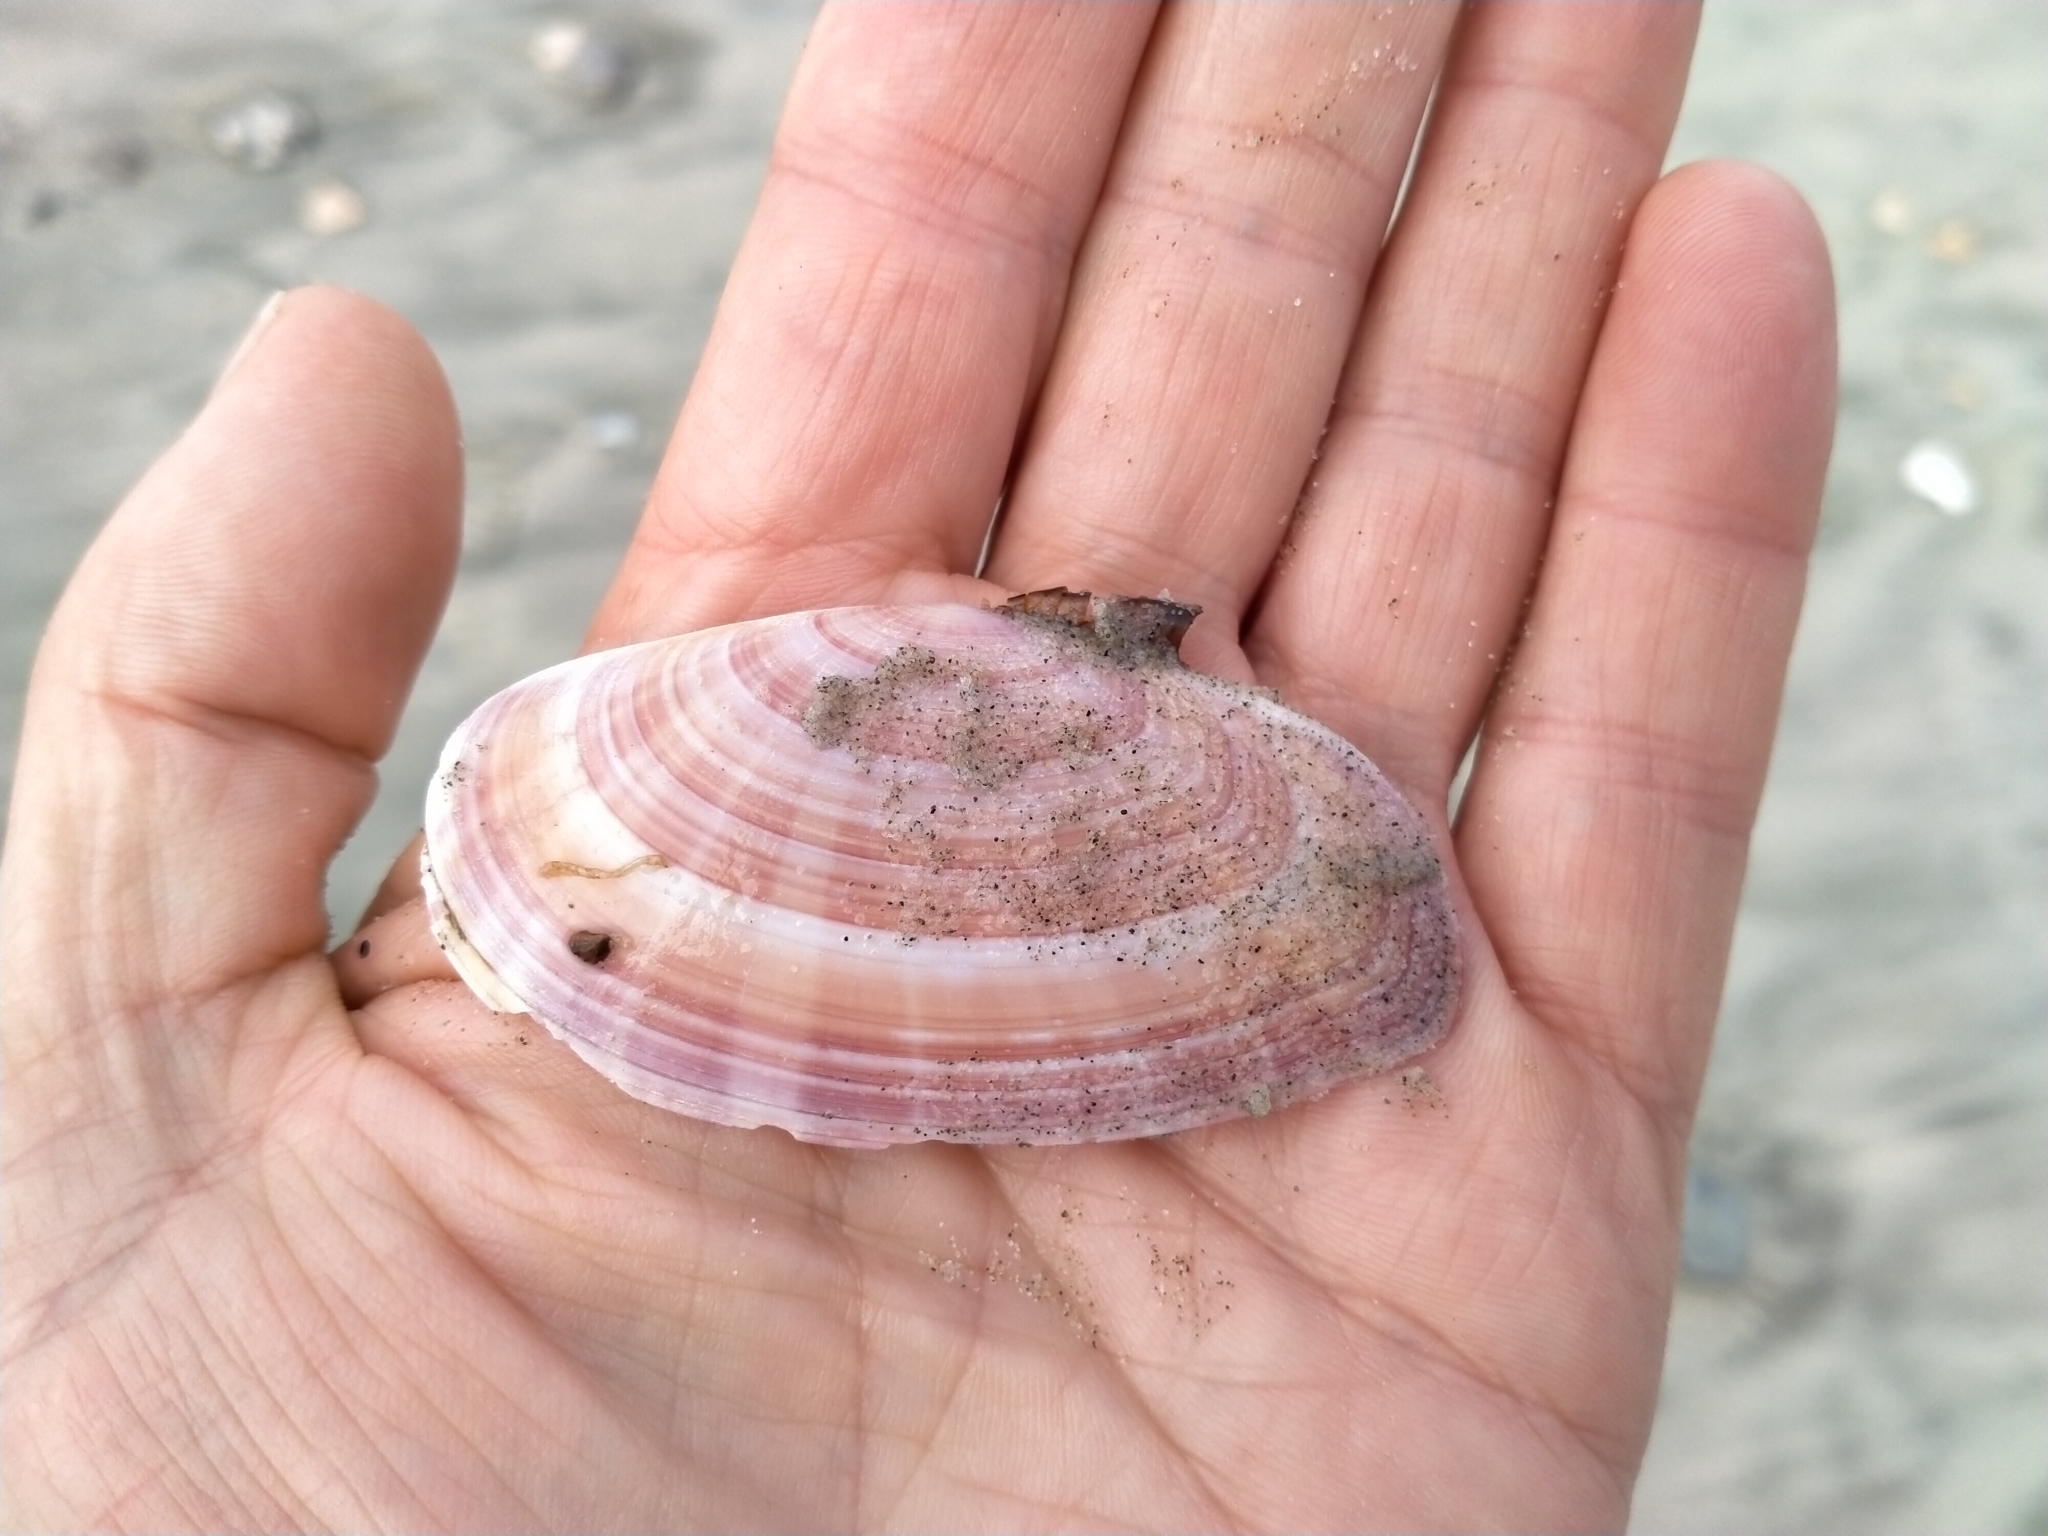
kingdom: Animalia
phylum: Mollusca
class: Bivalvia
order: Cardiida
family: Psammobiidae
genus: Gari
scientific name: Gari convexa
